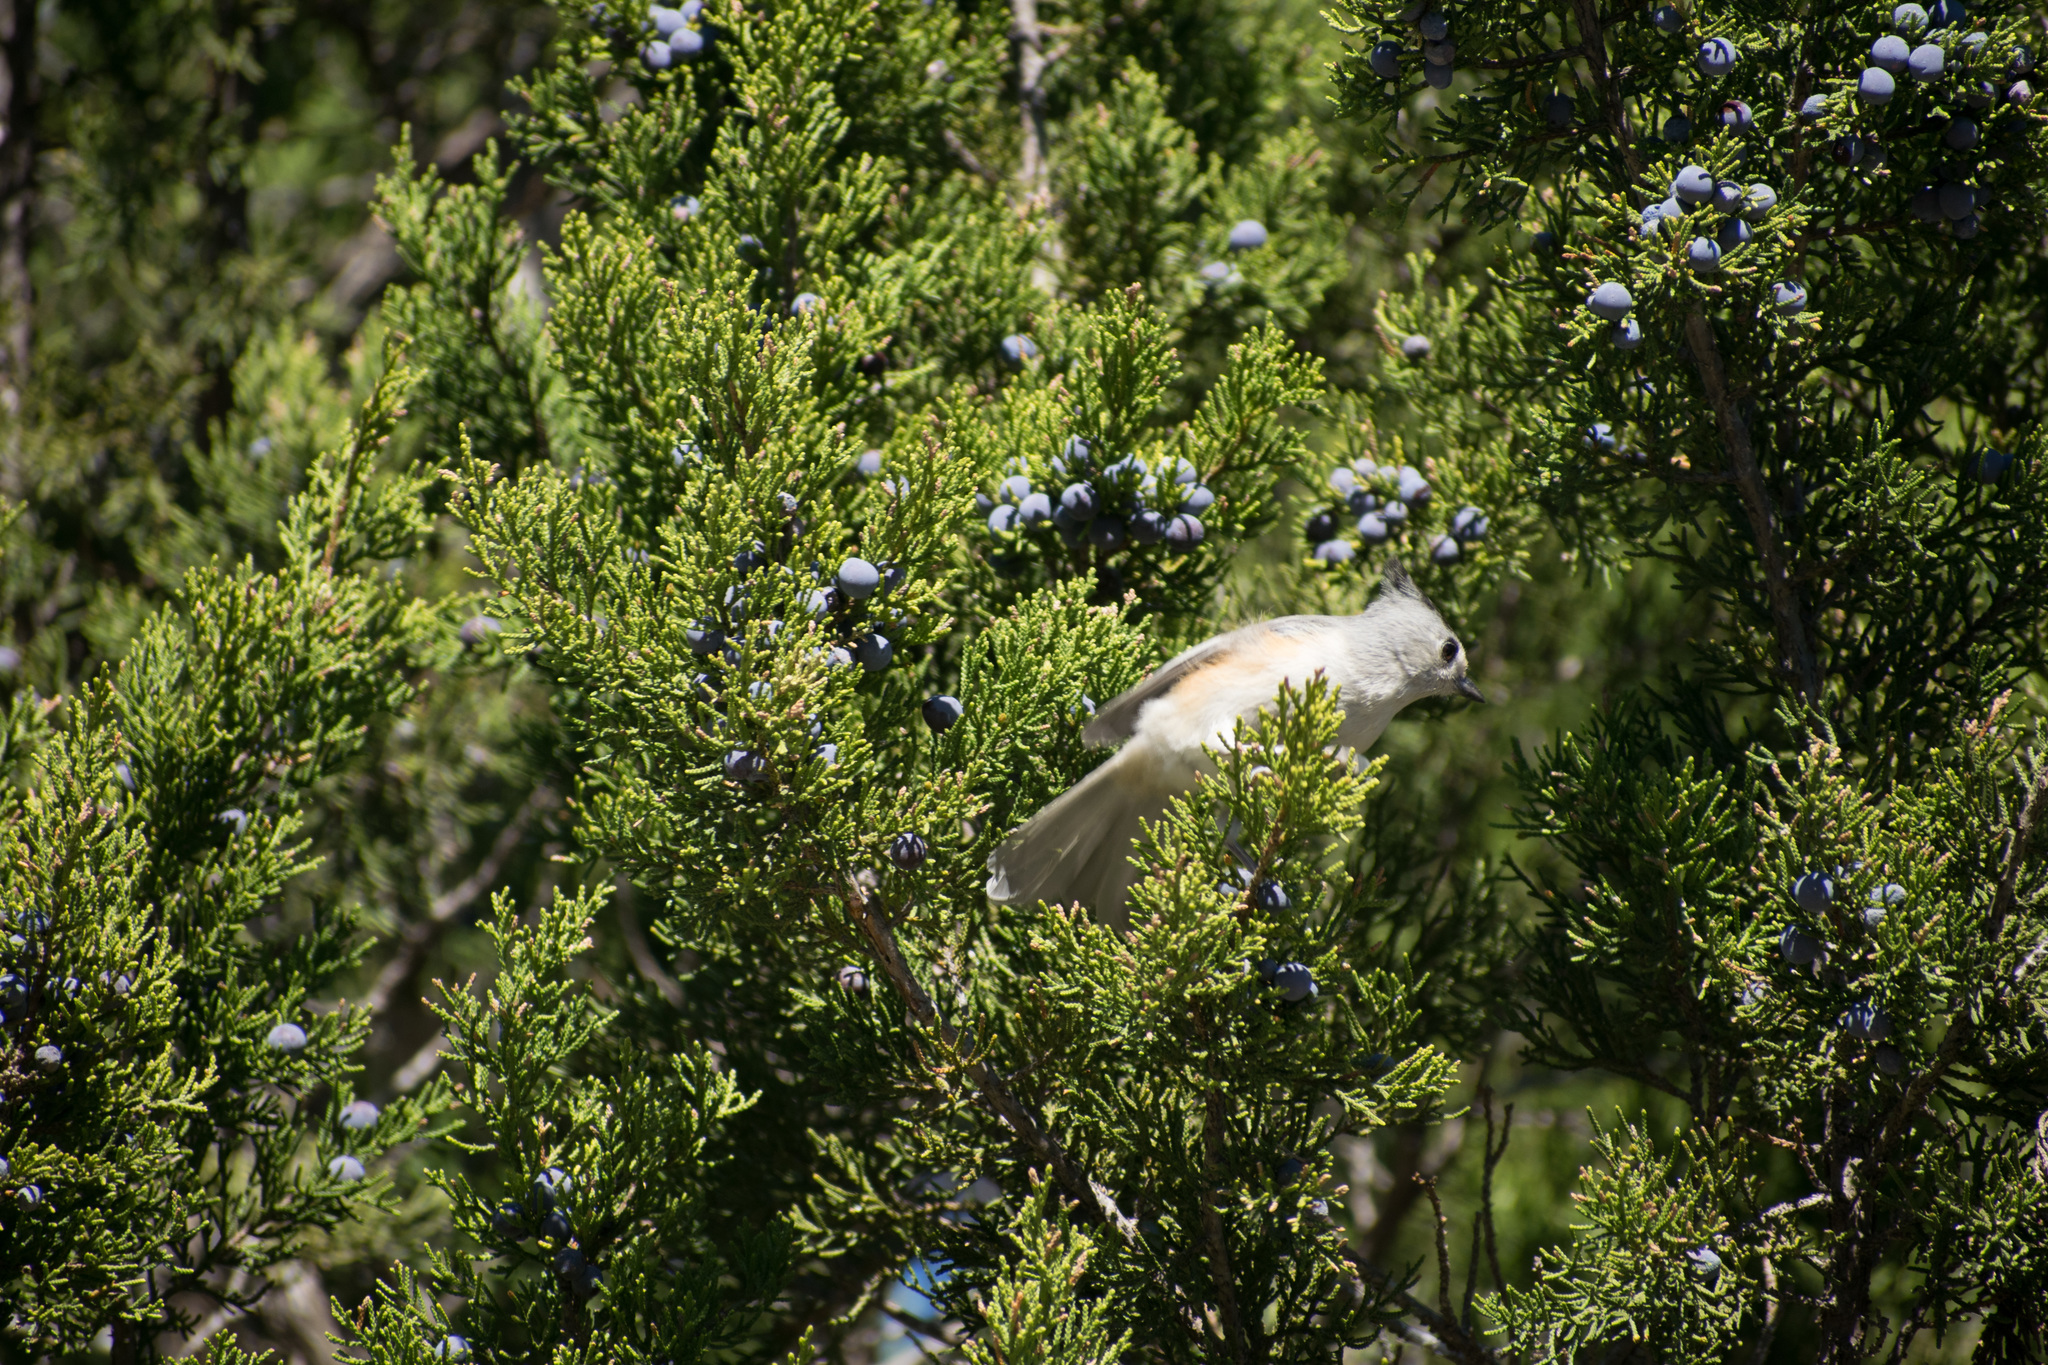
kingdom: Animalia
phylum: Chordata
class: Aves
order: Passeriformes
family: Paridae
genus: Baeolophus
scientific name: Baeolophus atricristatus
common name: Black-crested titmouse
